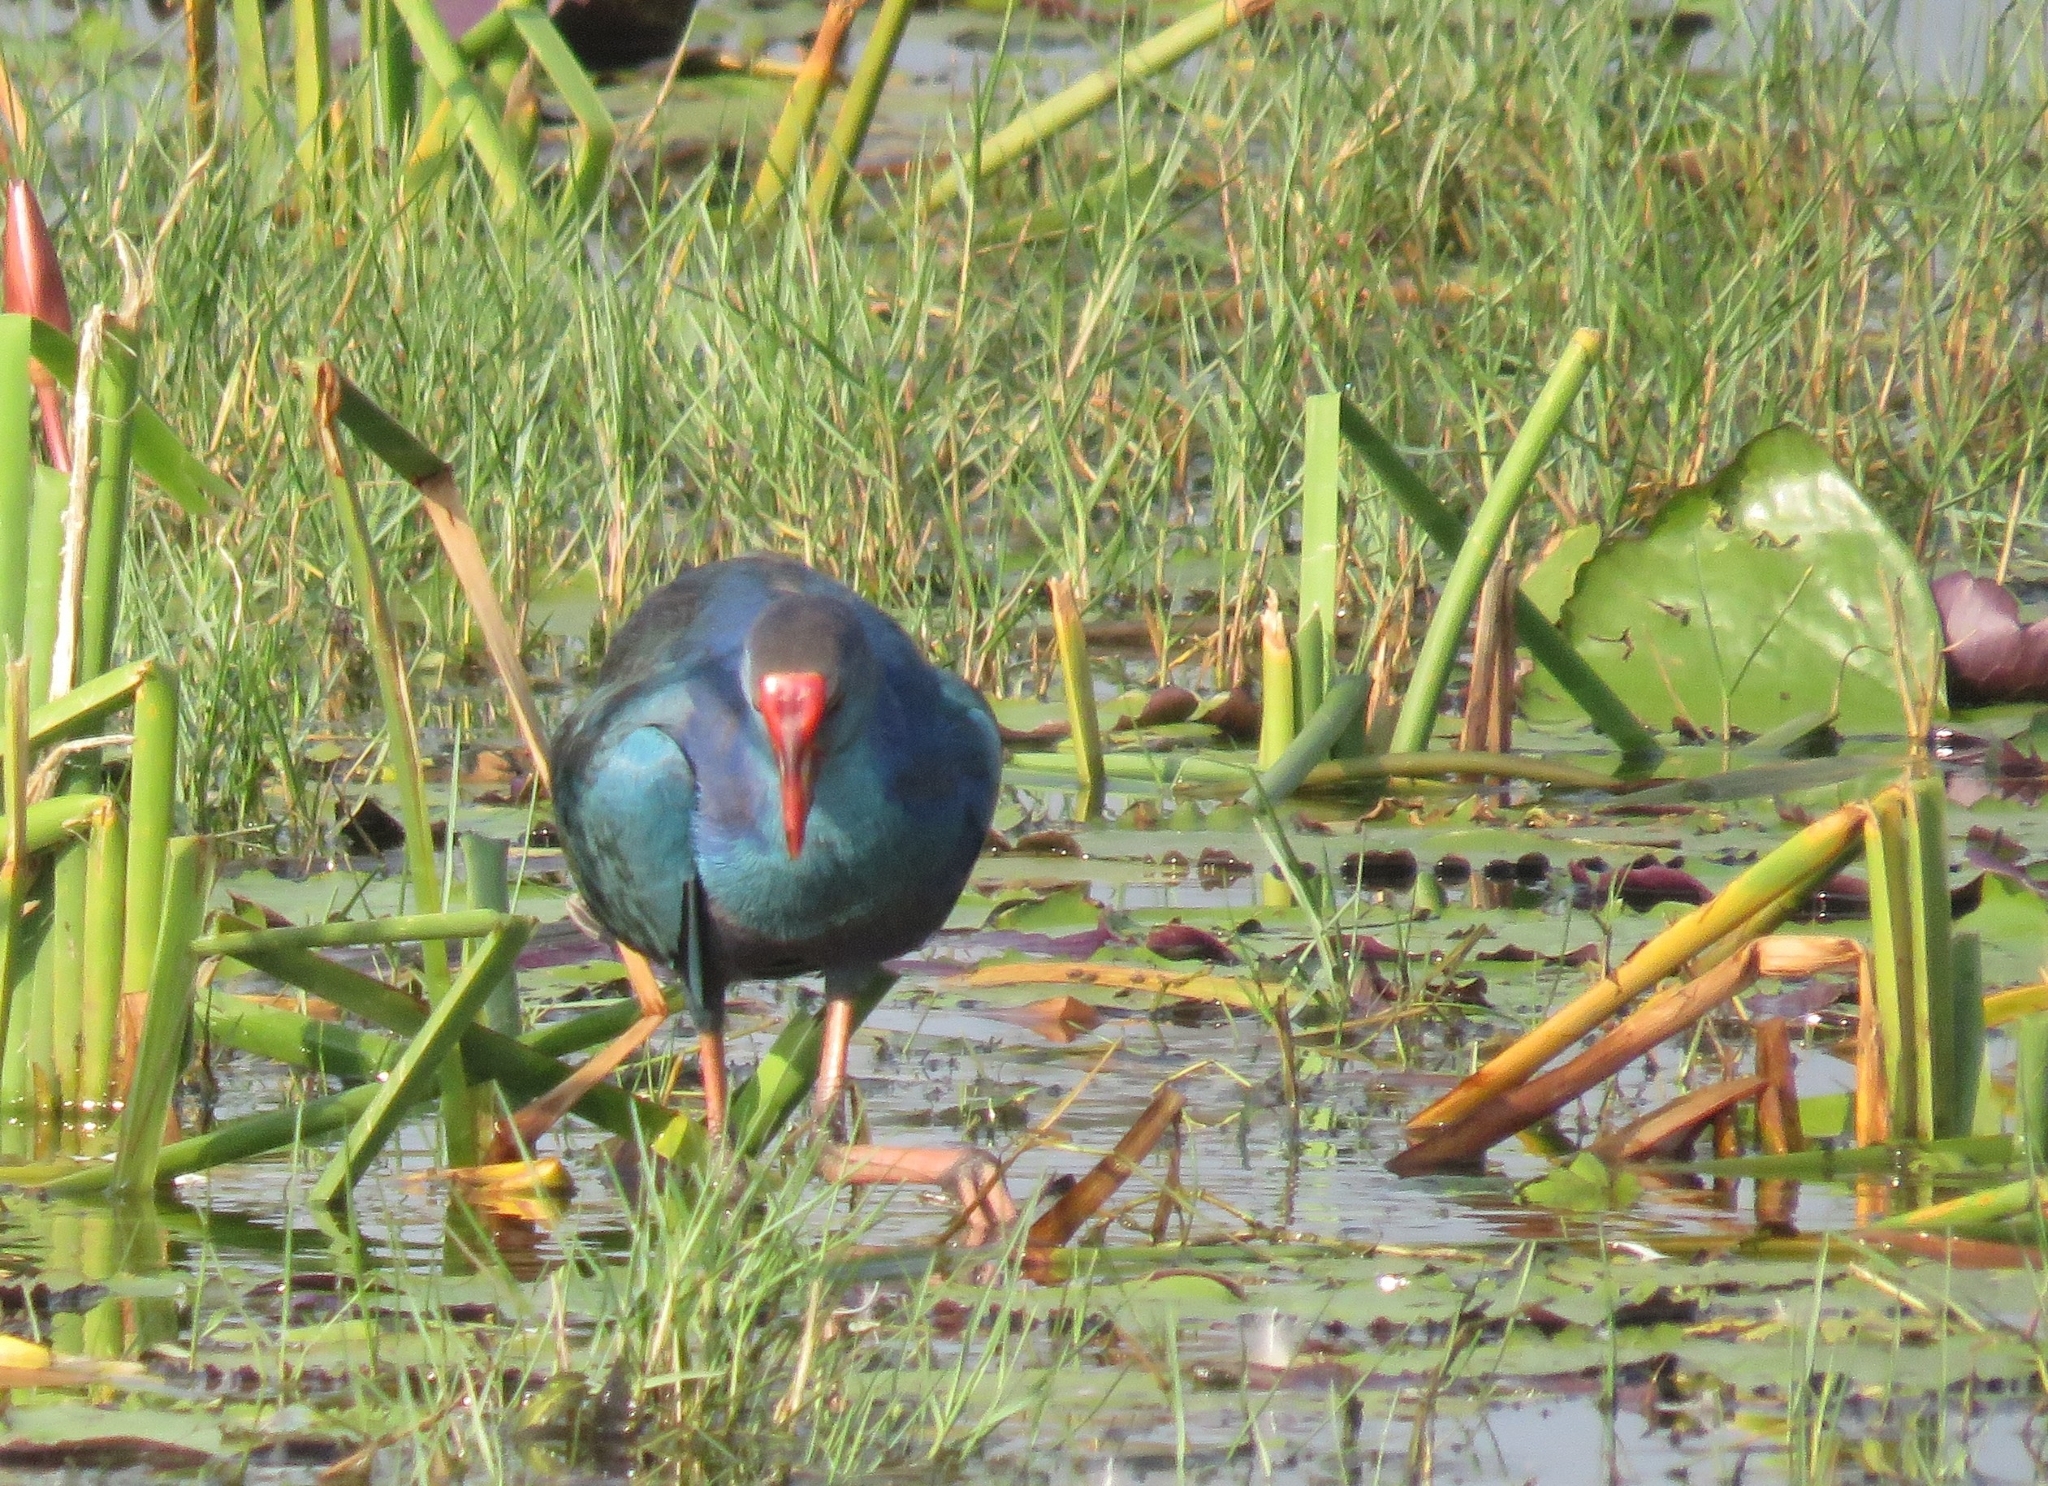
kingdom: Animalia
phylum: Chordata
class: Aves
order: Gruiformes
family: Rallidae
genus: Porphyrio
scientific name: Porphyrio porphyrio
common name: Purple swamphen
